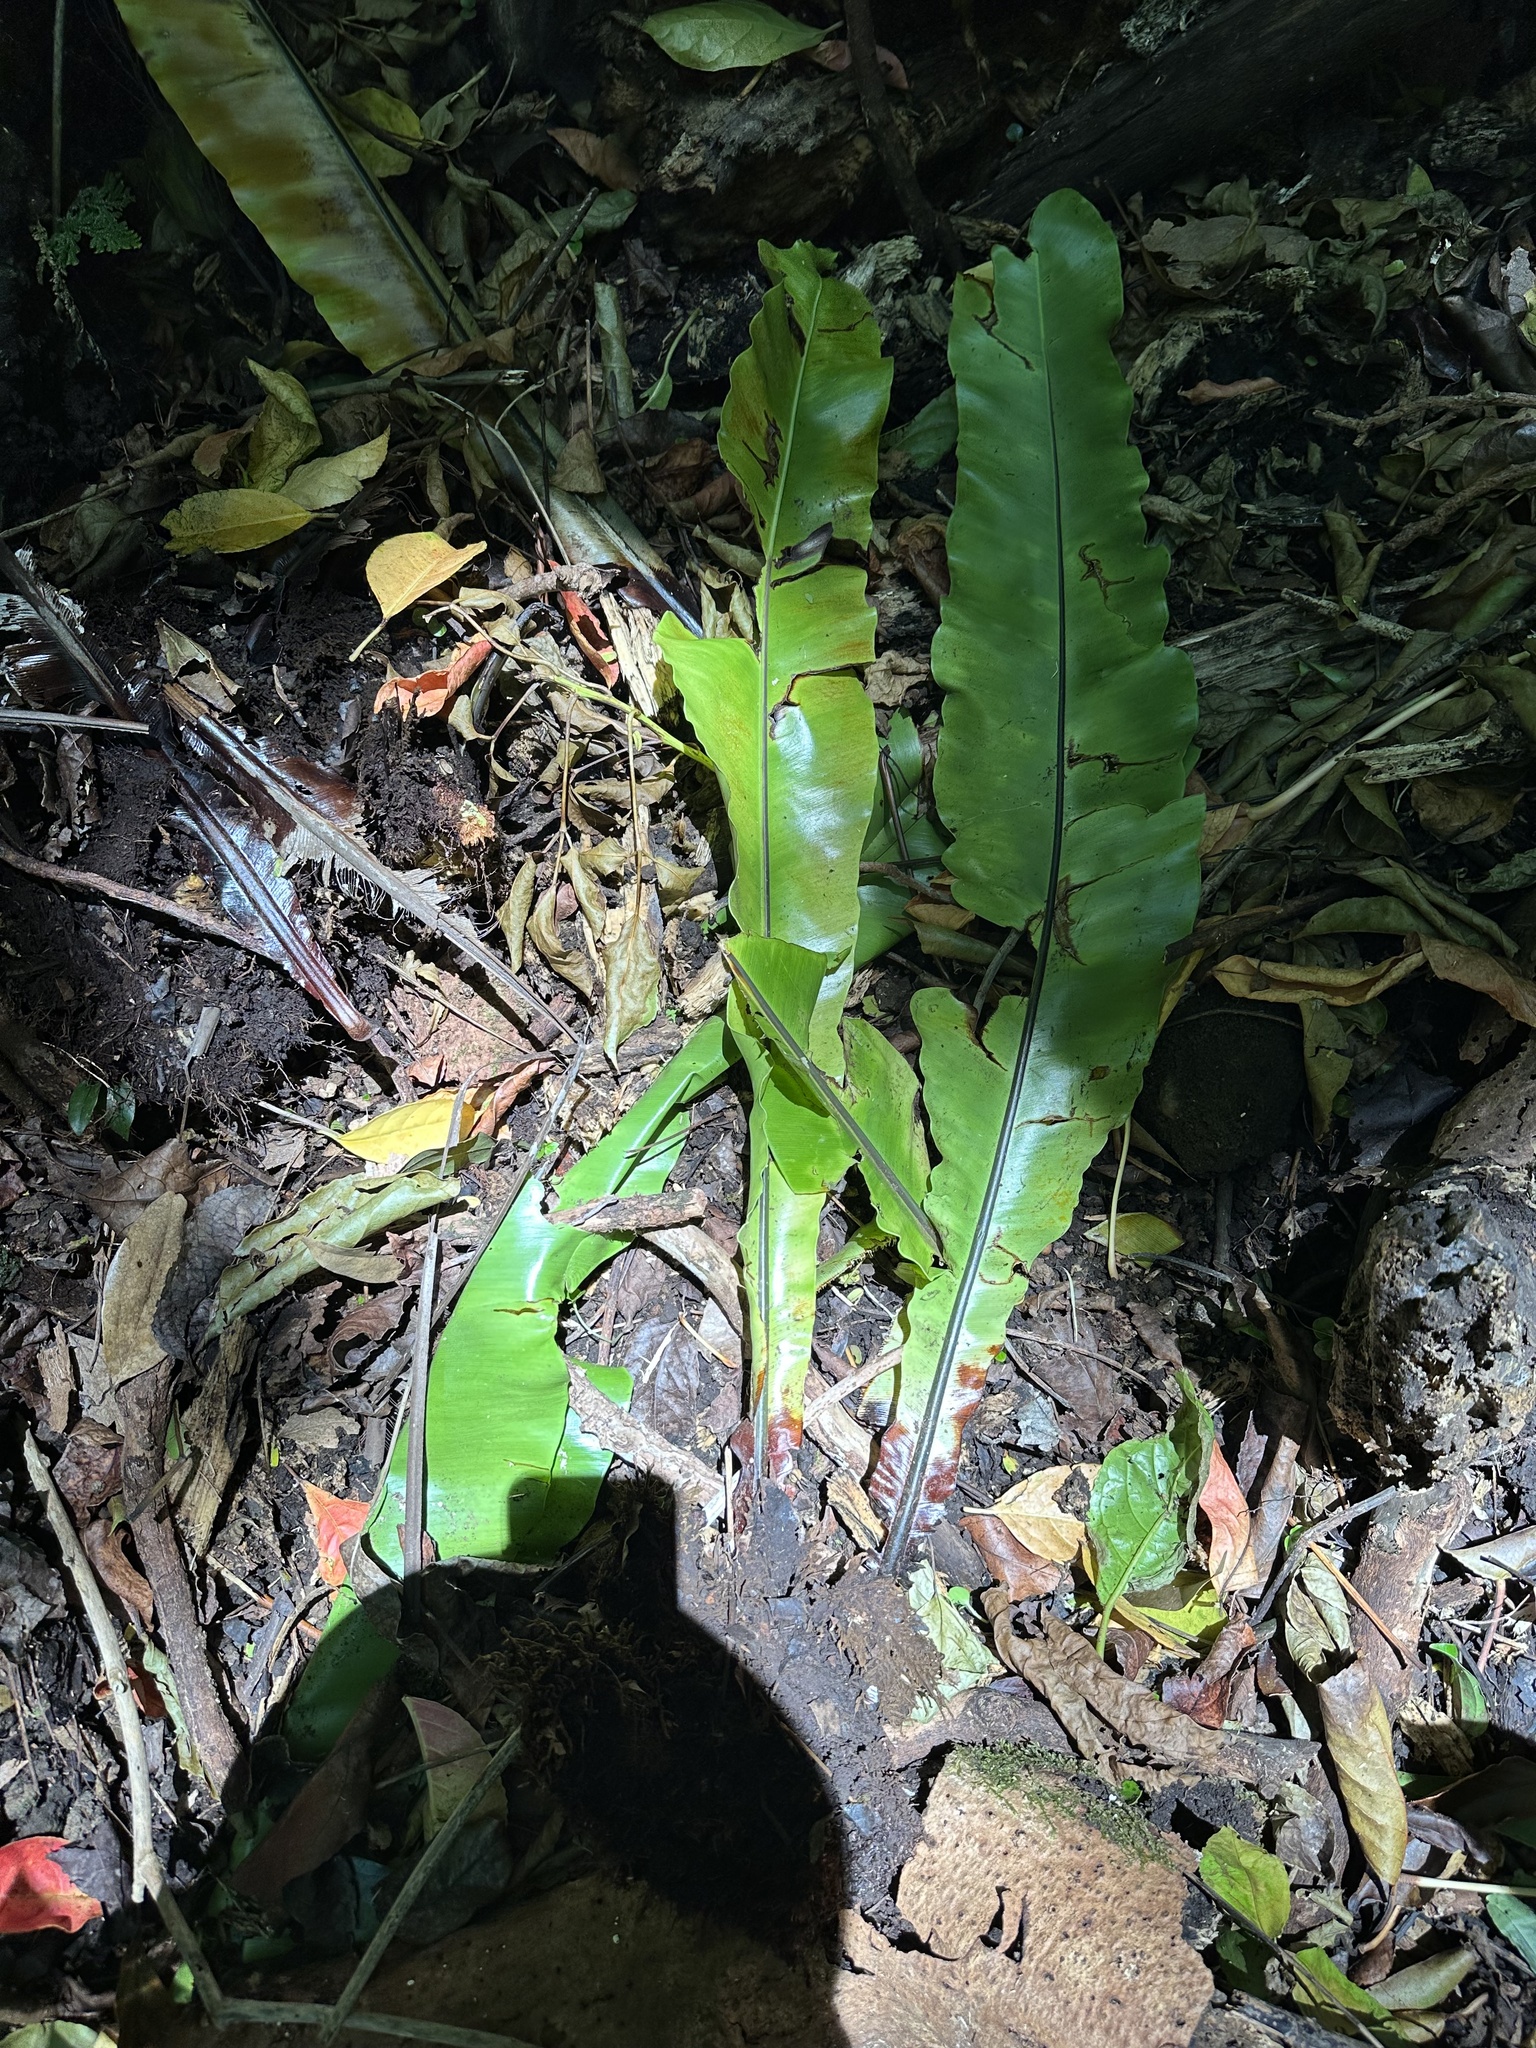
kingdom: Plantae
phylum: Tracheophyta
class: Polypodiopsida
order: Polypodiales
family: Aspleniaceae
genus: Asplenium
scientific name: Asplenium nidus
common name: Bird's-nest fern
